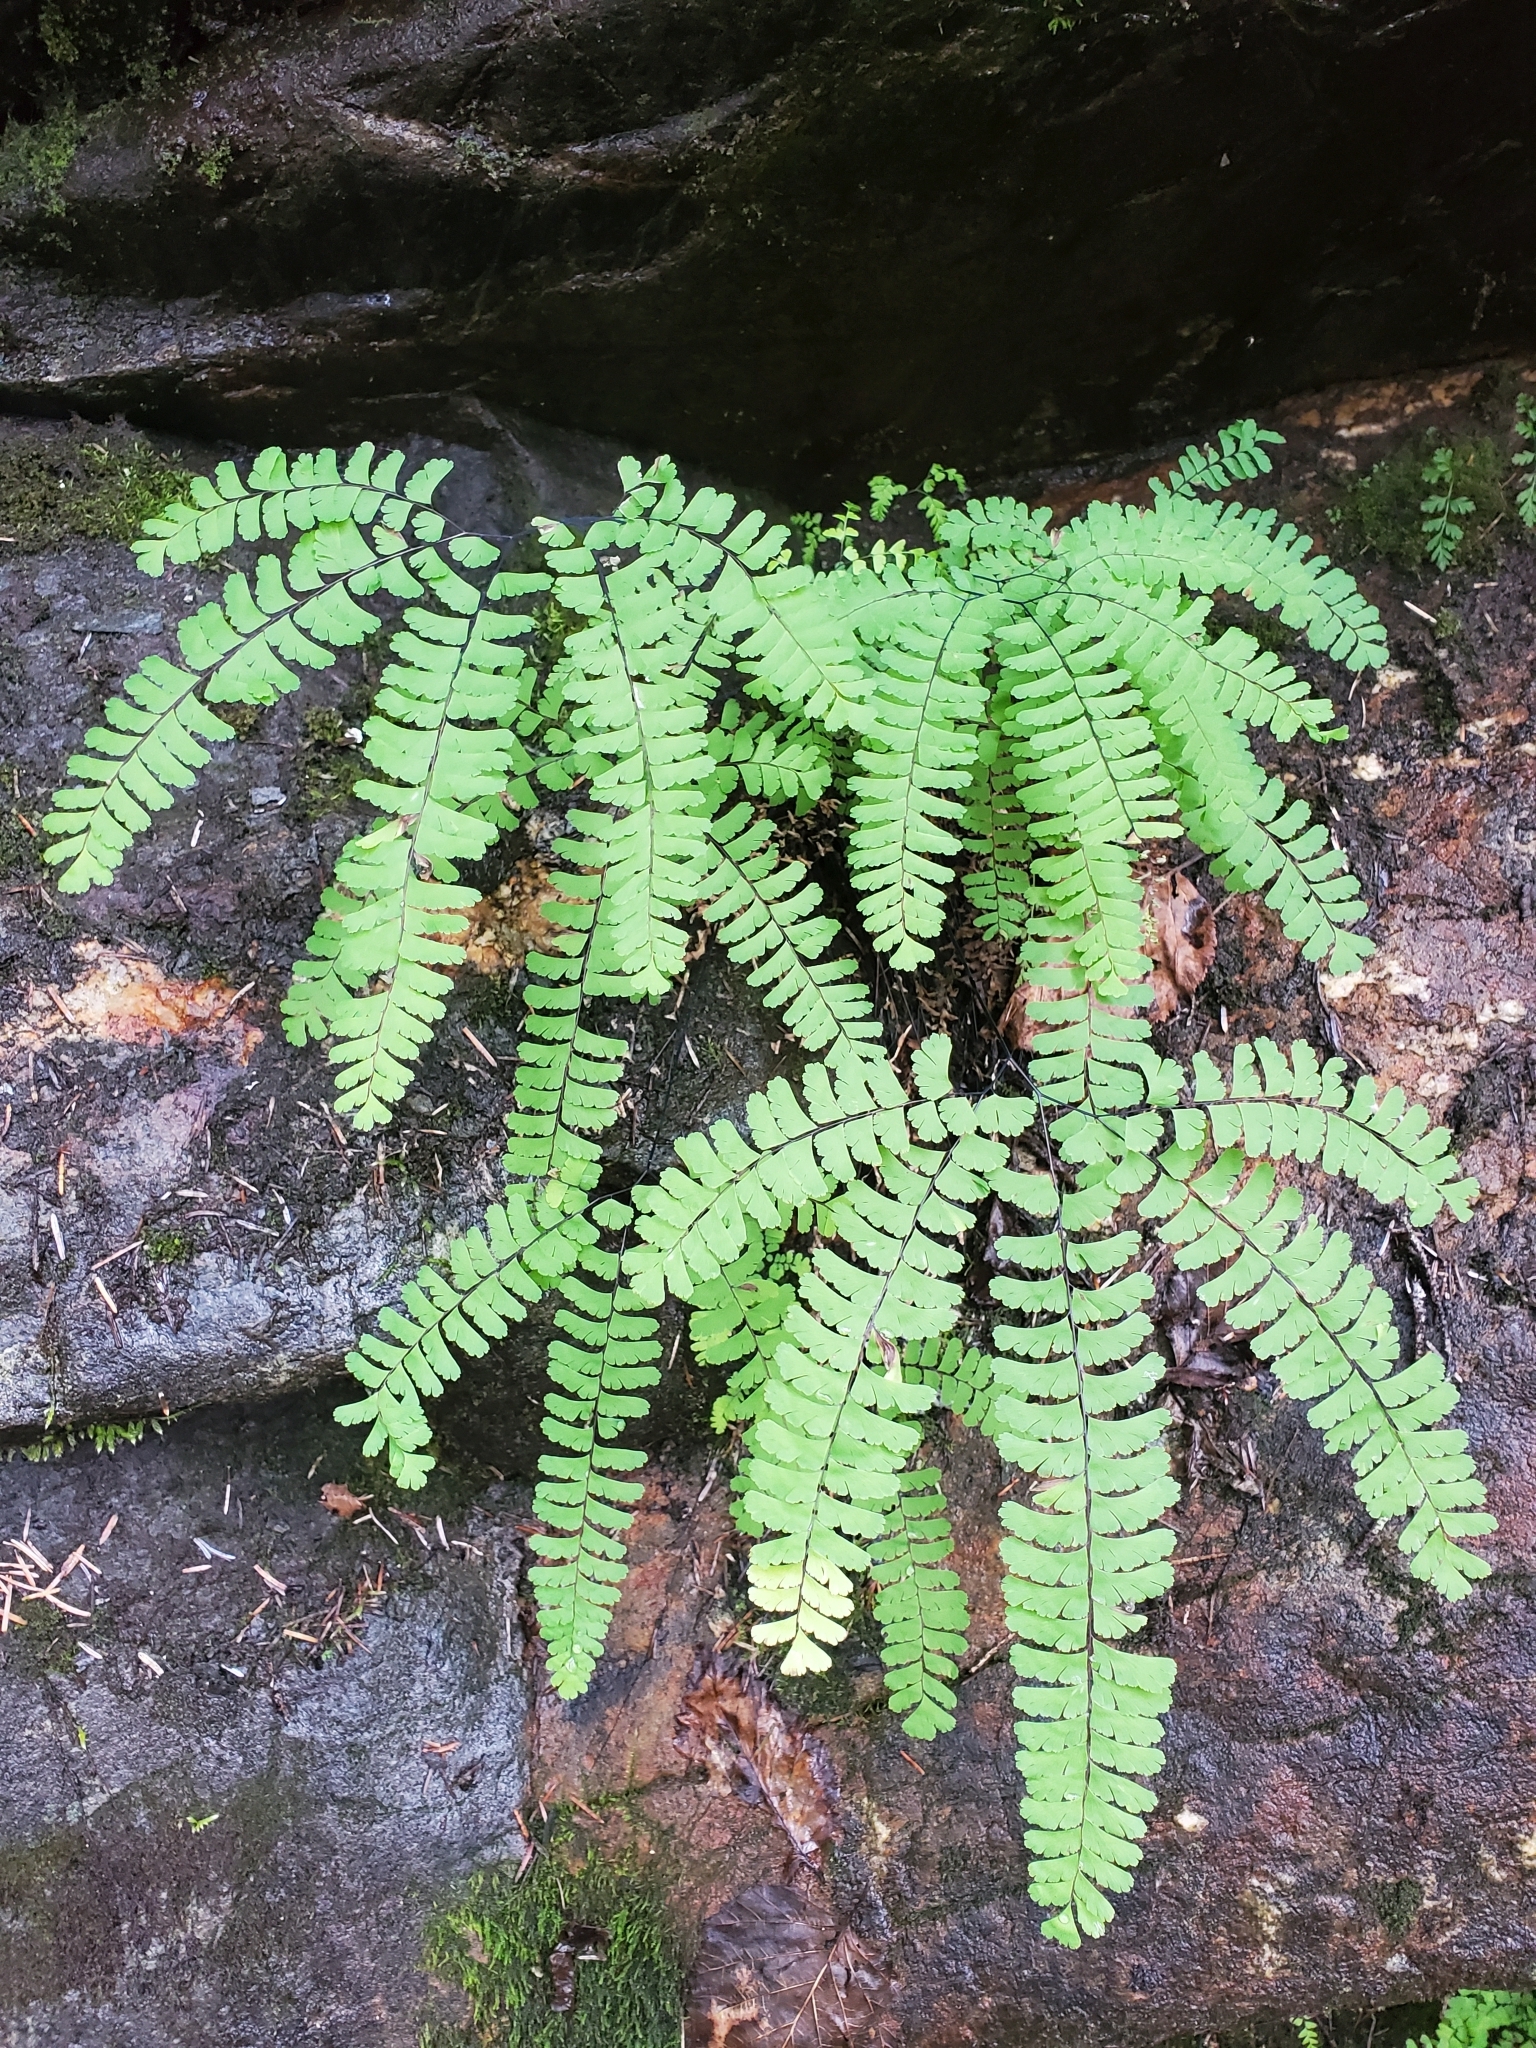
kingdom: Plantae
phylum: Tracheophyta
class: Polypodiopsida
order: Polypodiales
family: Pteridaceae
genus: Adiantum
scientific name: Adiantum aleuticum
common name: Aleutian maidenhair fern
